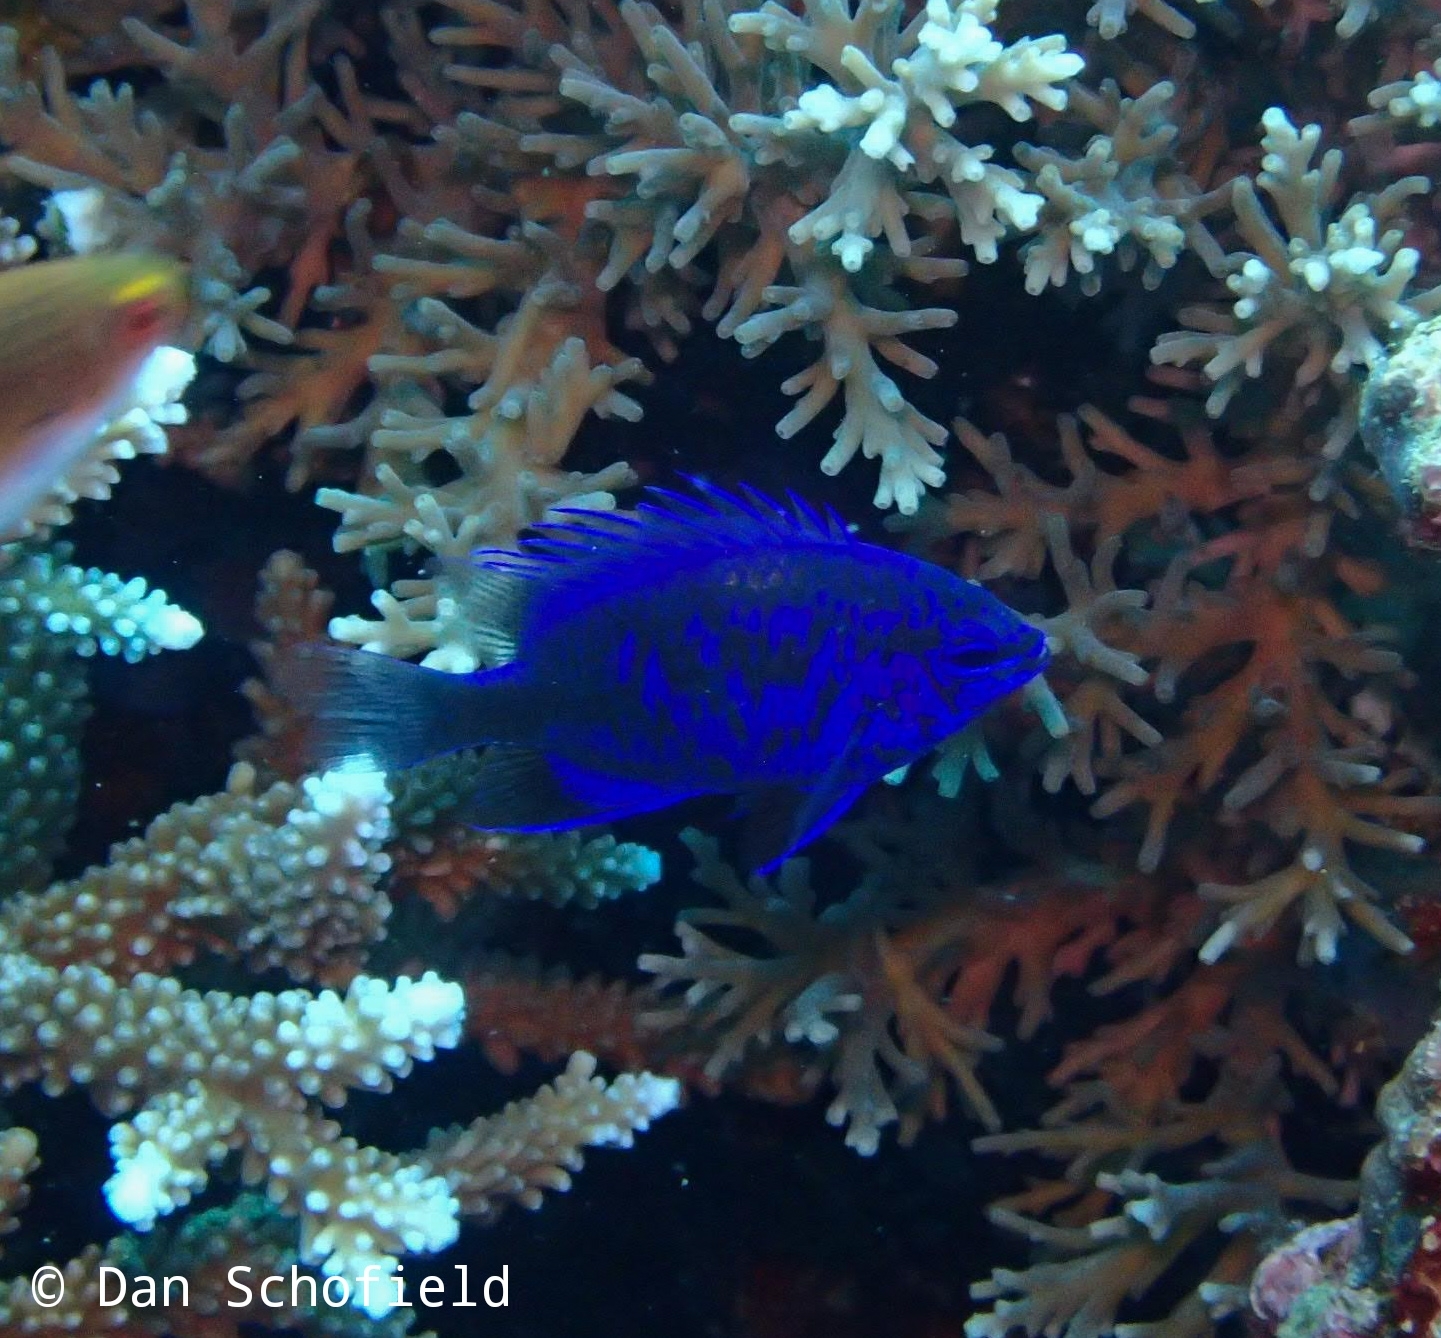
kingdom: Animalia
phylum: Chordata
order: Perciformes
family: Pomacentridae
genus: Chrysiptera
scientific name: Chrysiptera springeri
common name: Springer's demoiselle
